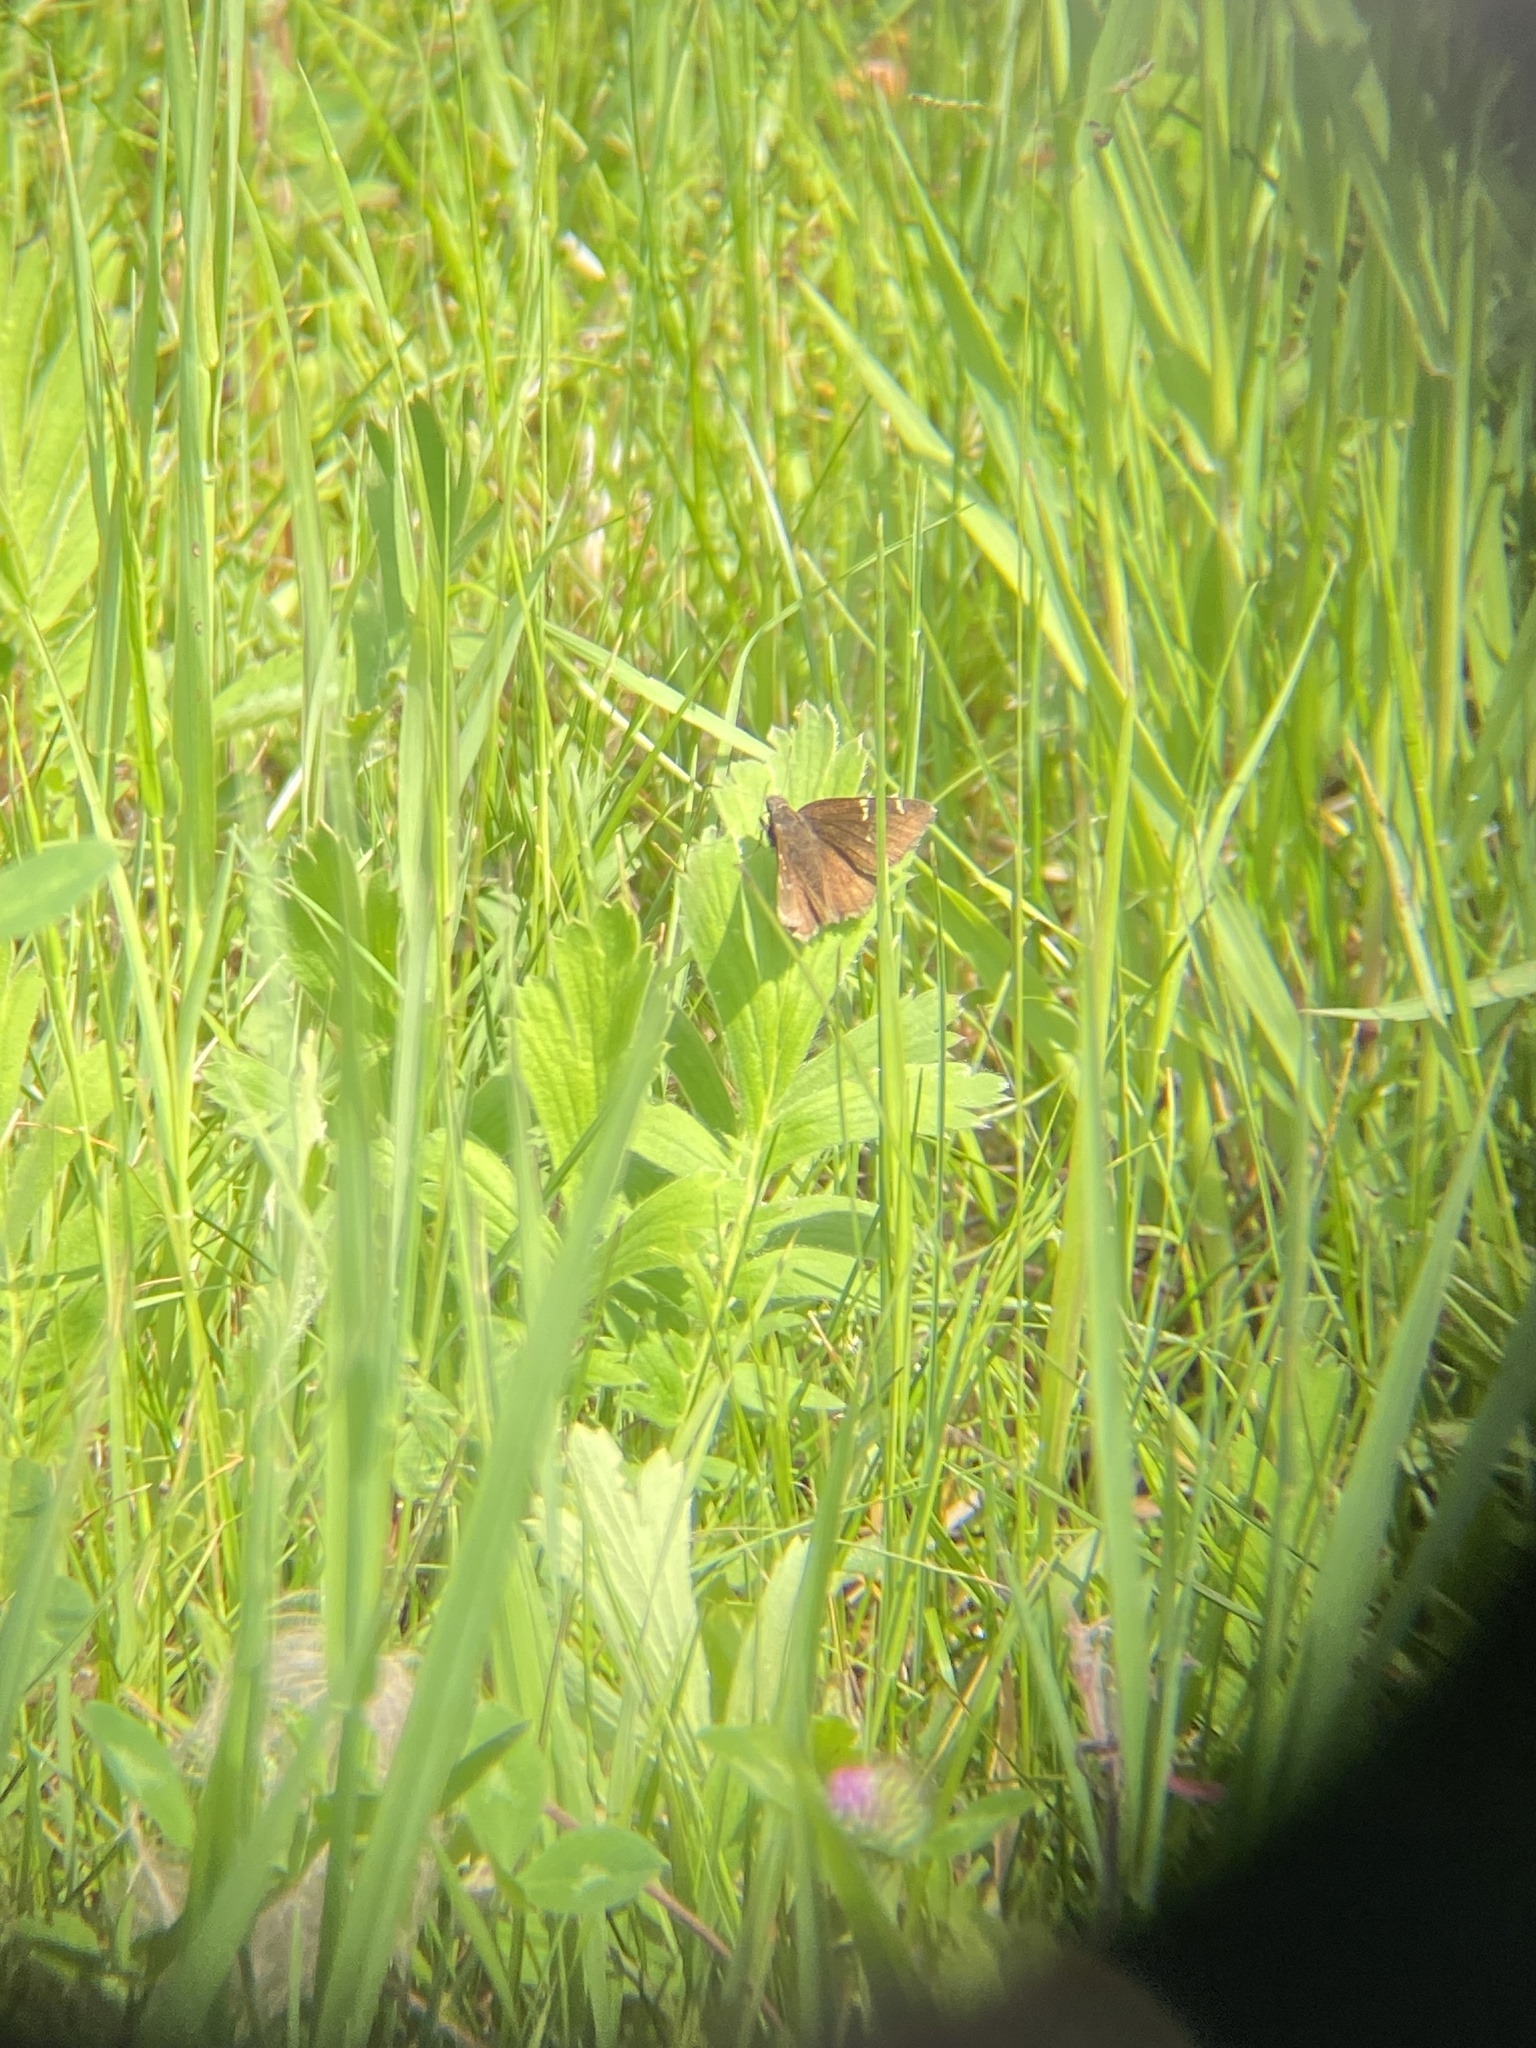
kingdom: Animalia
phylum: Arthropoda
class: Insecta
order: Lepidoptera
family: Hesperiidae
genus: Thorybes
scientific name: Thorybes pylades
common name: Northern cloudywing
